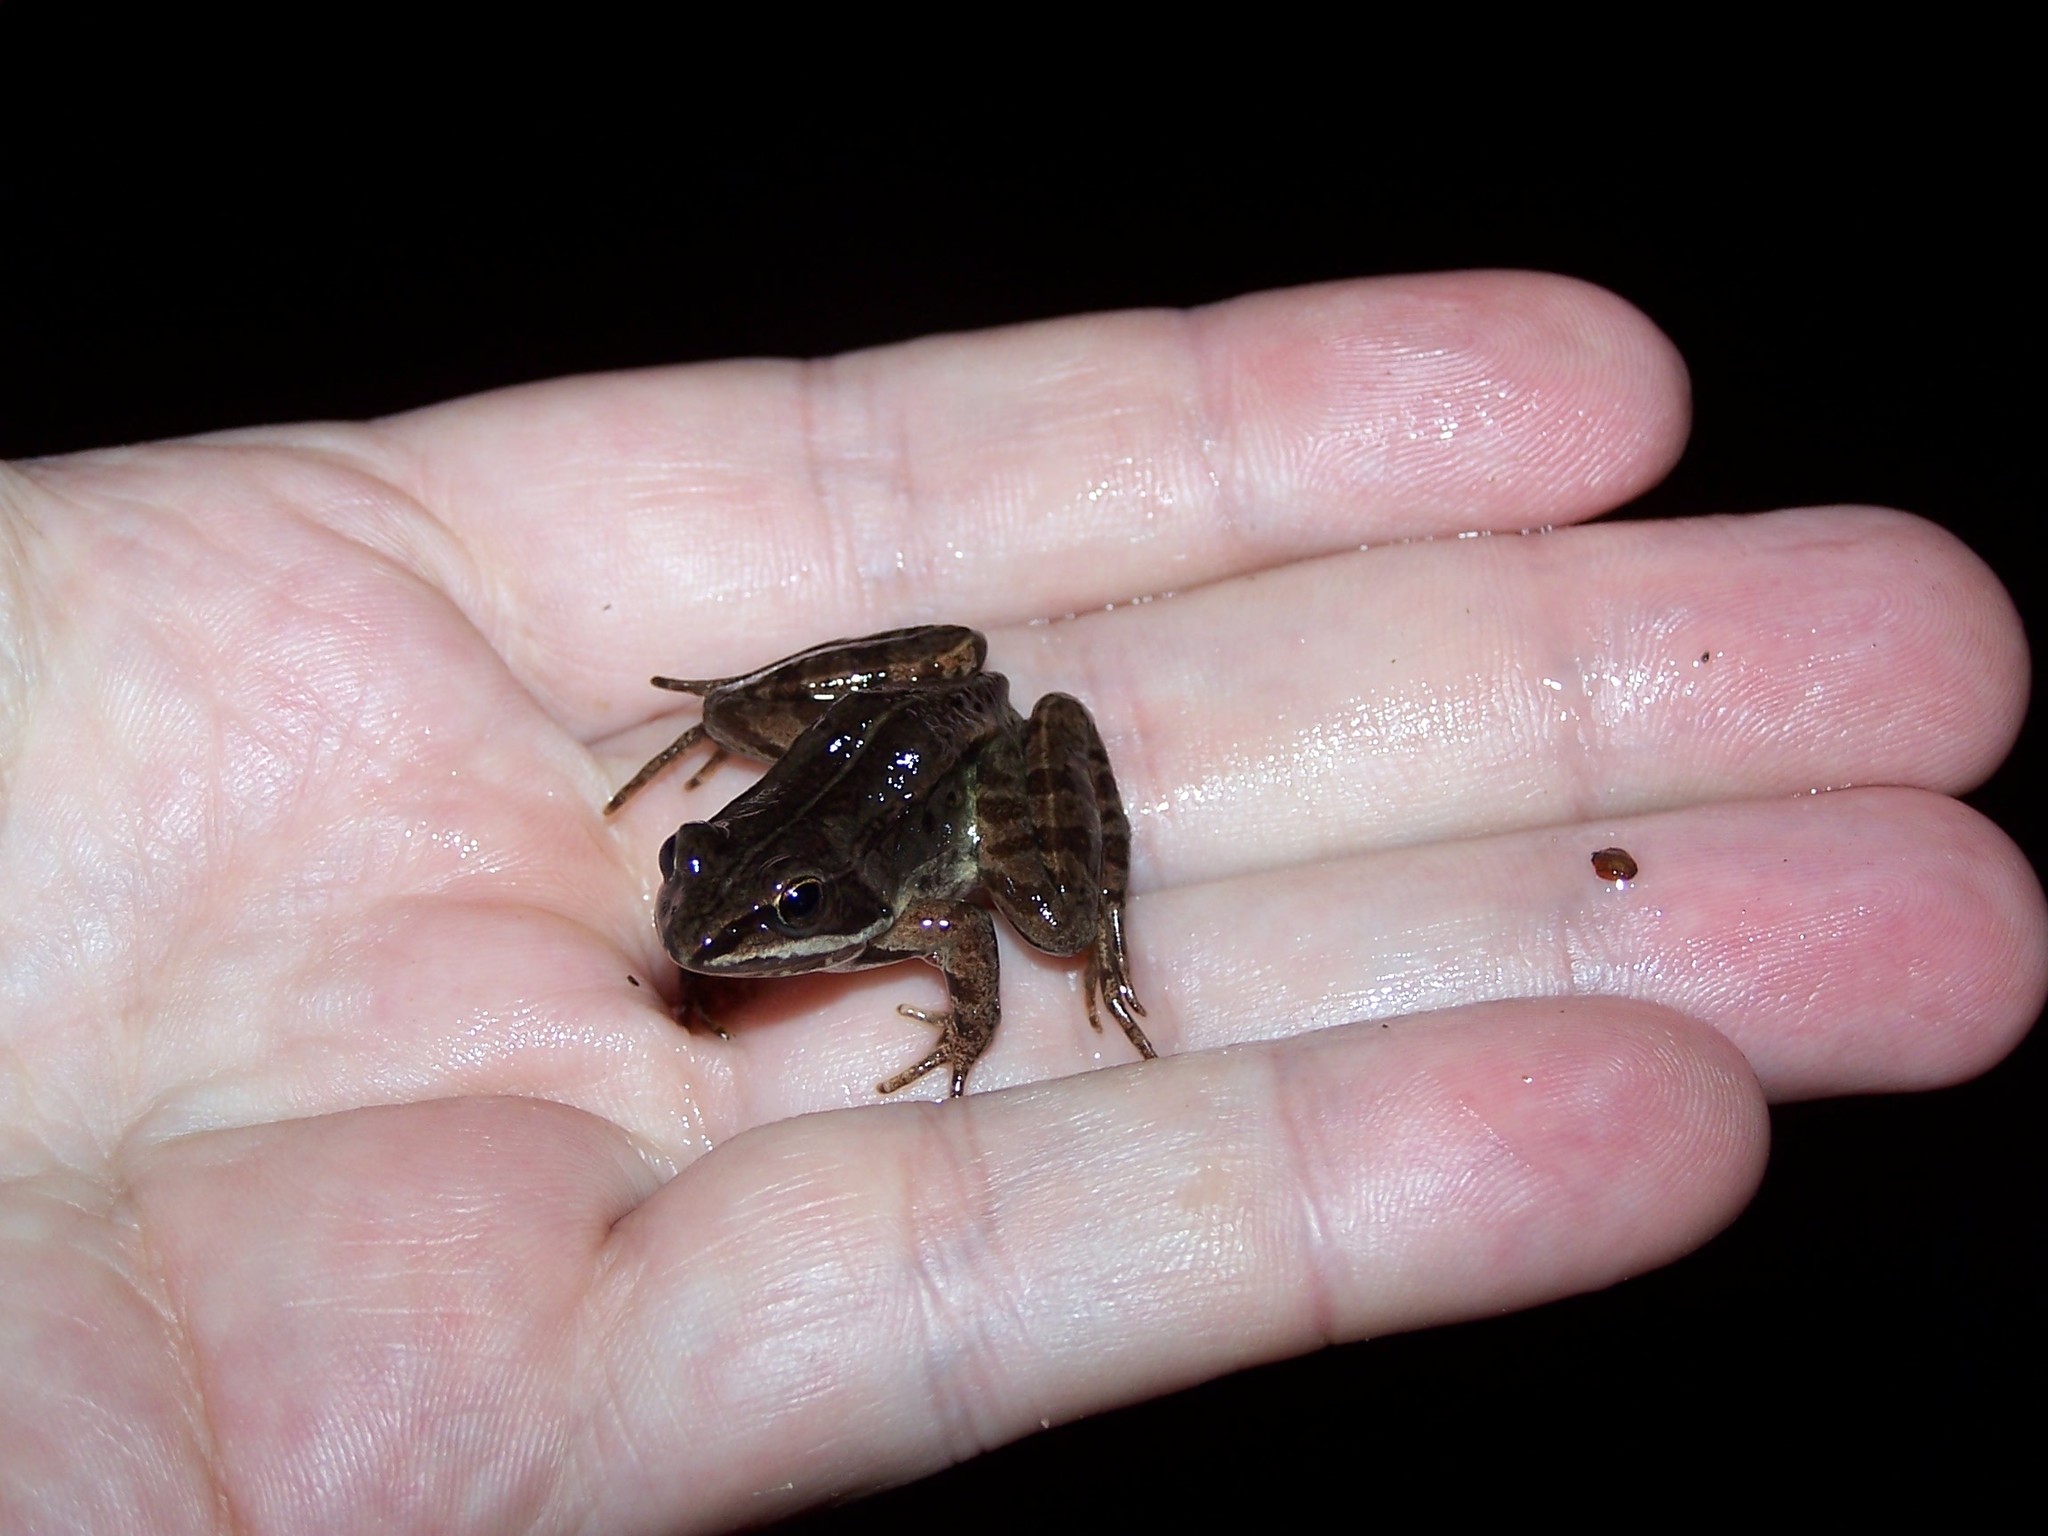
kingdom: Animalia
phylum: Chordata
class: Amphibia
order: Anura
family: Ranidae
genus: Lithobates
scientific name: Lithobates sylvaticus
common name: Wood frog
